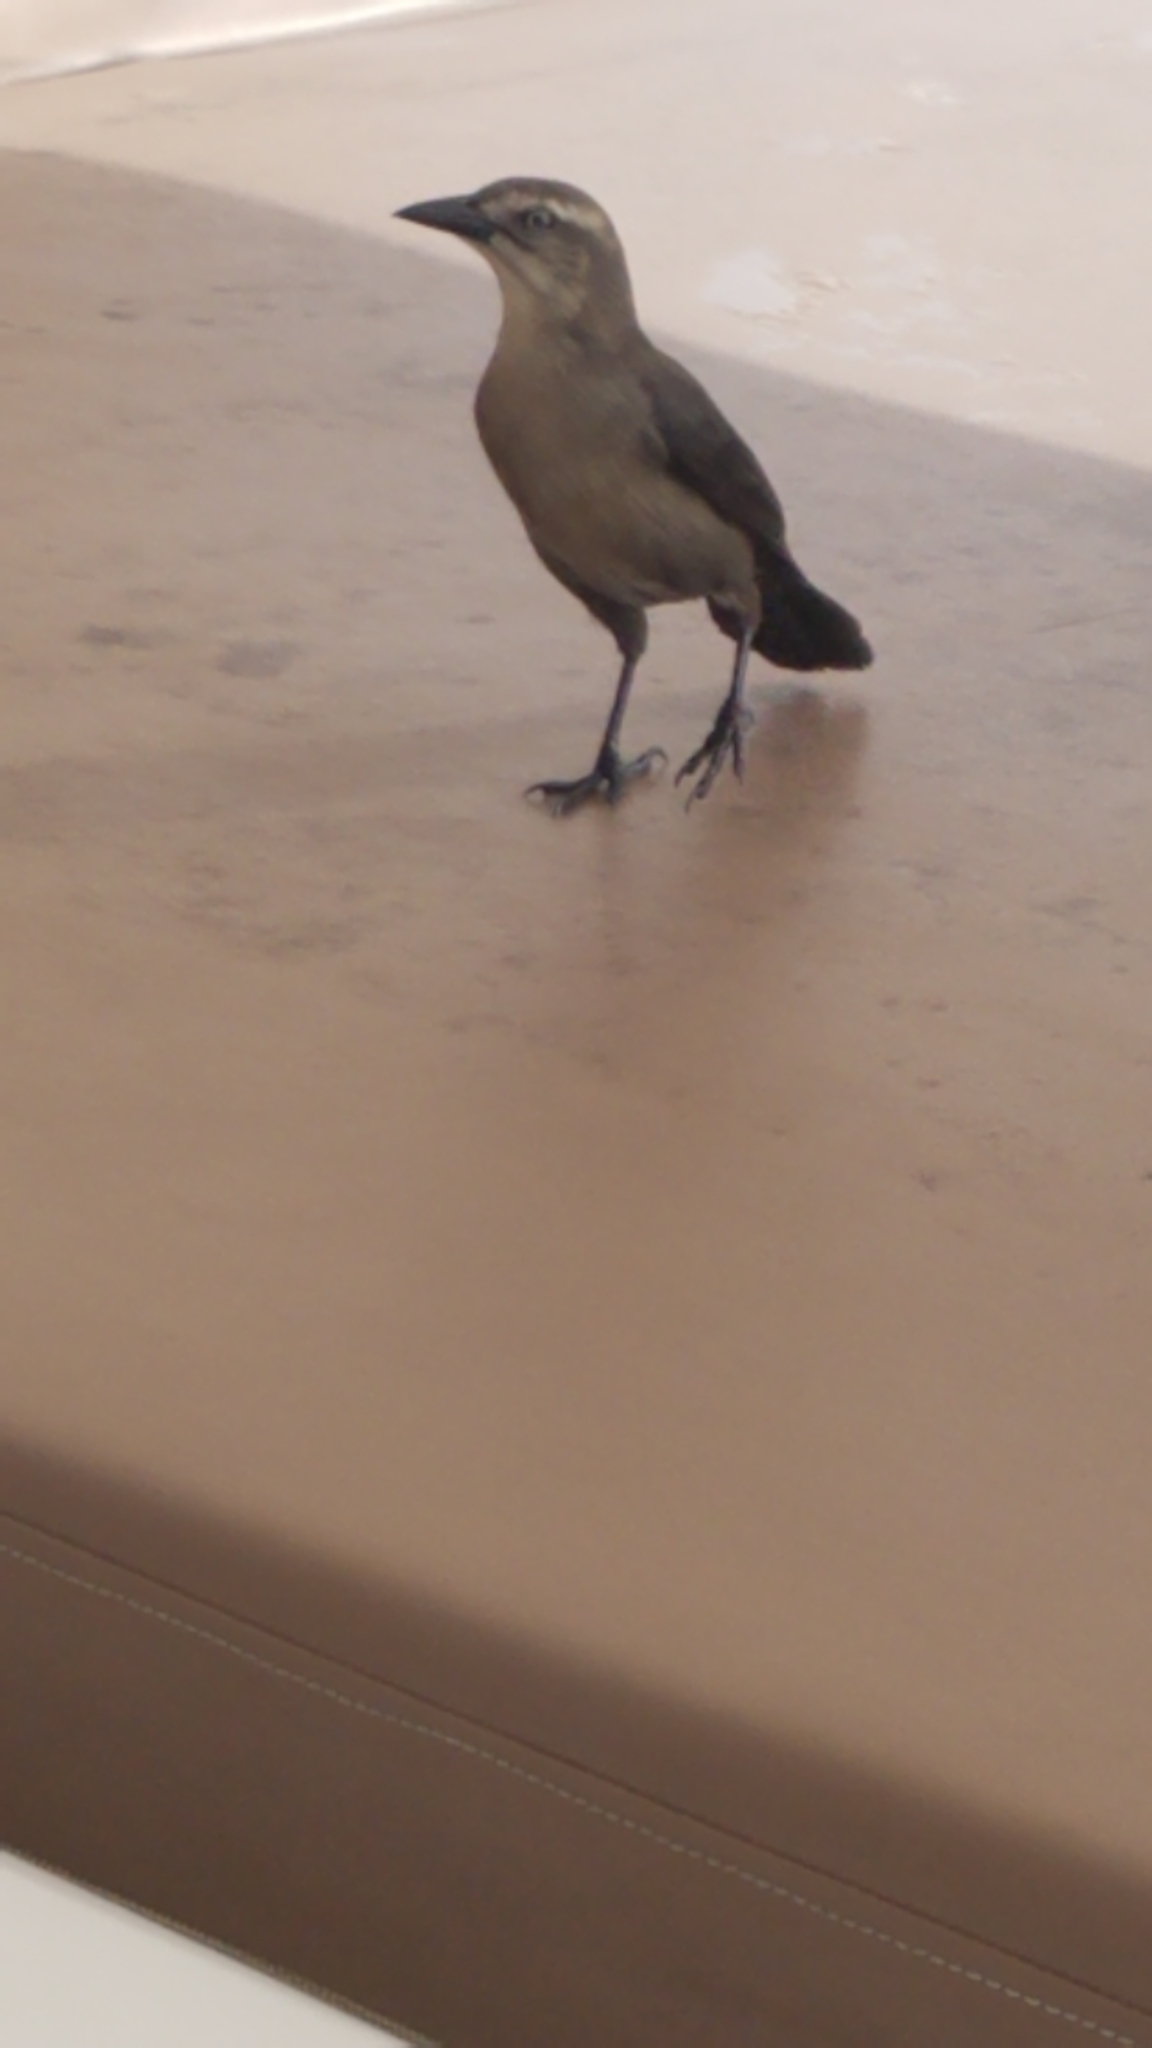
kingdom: Animalia
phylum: Chordata
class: Aves
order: Passeriformes
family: Icteridae
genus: Quiscalus
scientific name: Quiscalus lugubris
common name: Carib grackle
